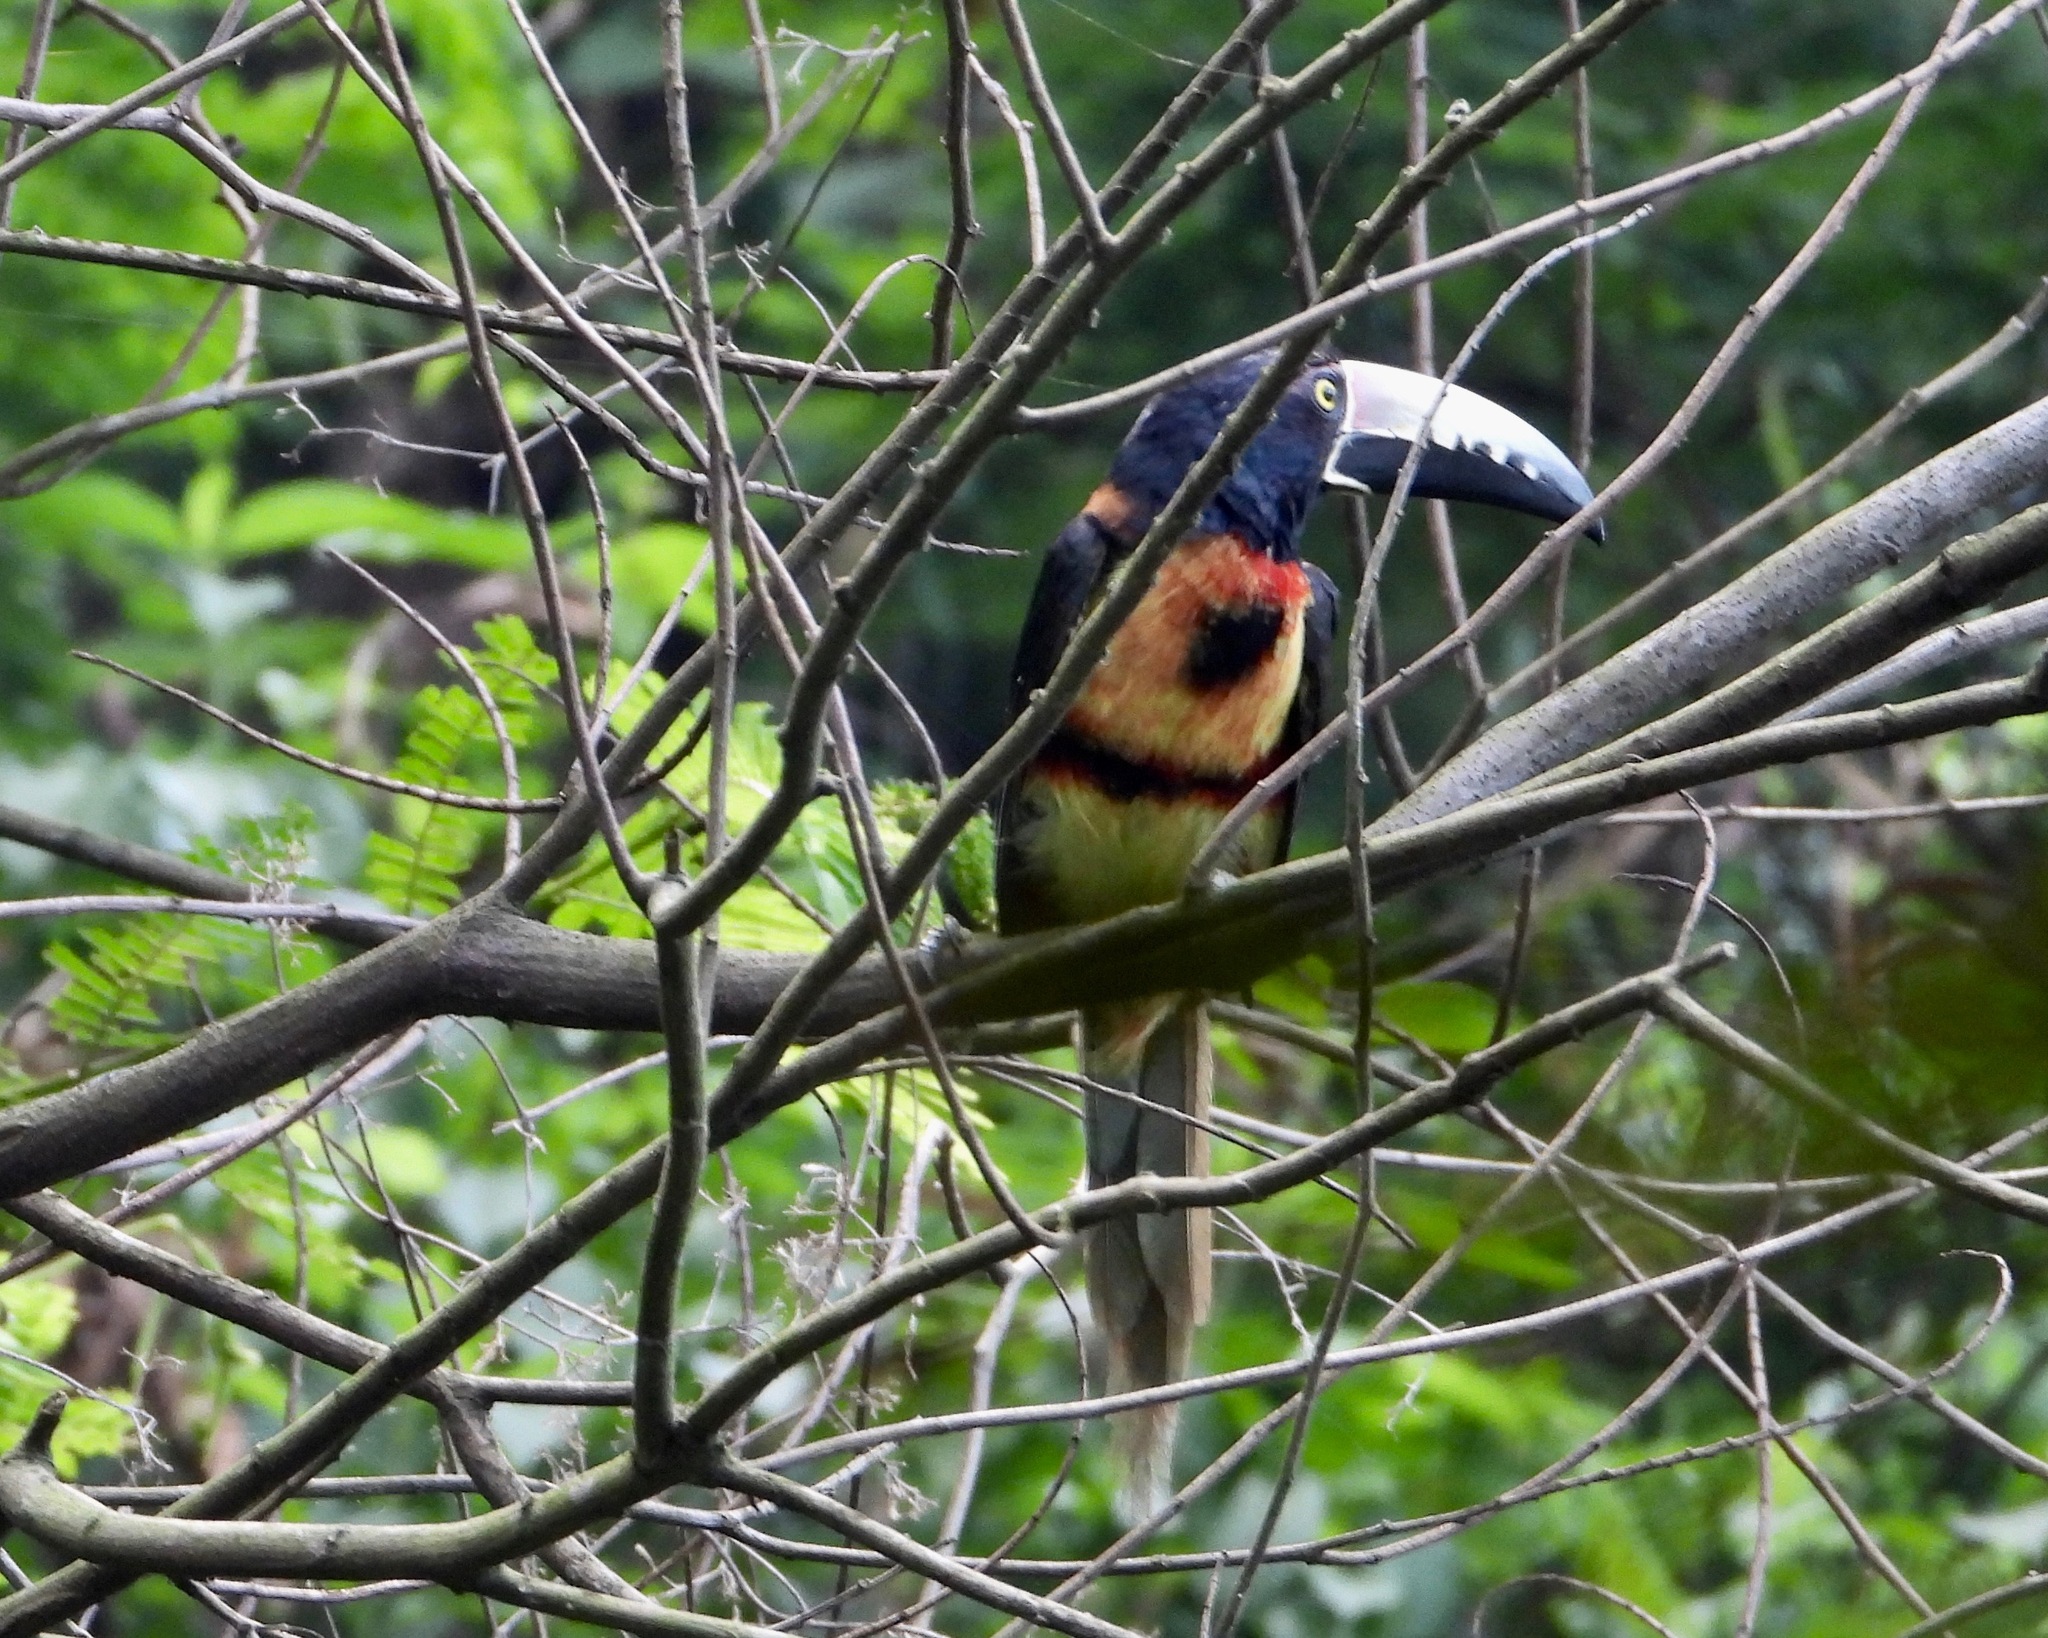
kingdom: Animalia
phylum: Chordata
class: Aves
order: Piciformes
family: Ramphastidae
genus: Pteroglossus
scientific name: Pteroglossus torquatus
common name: Collared aracari
